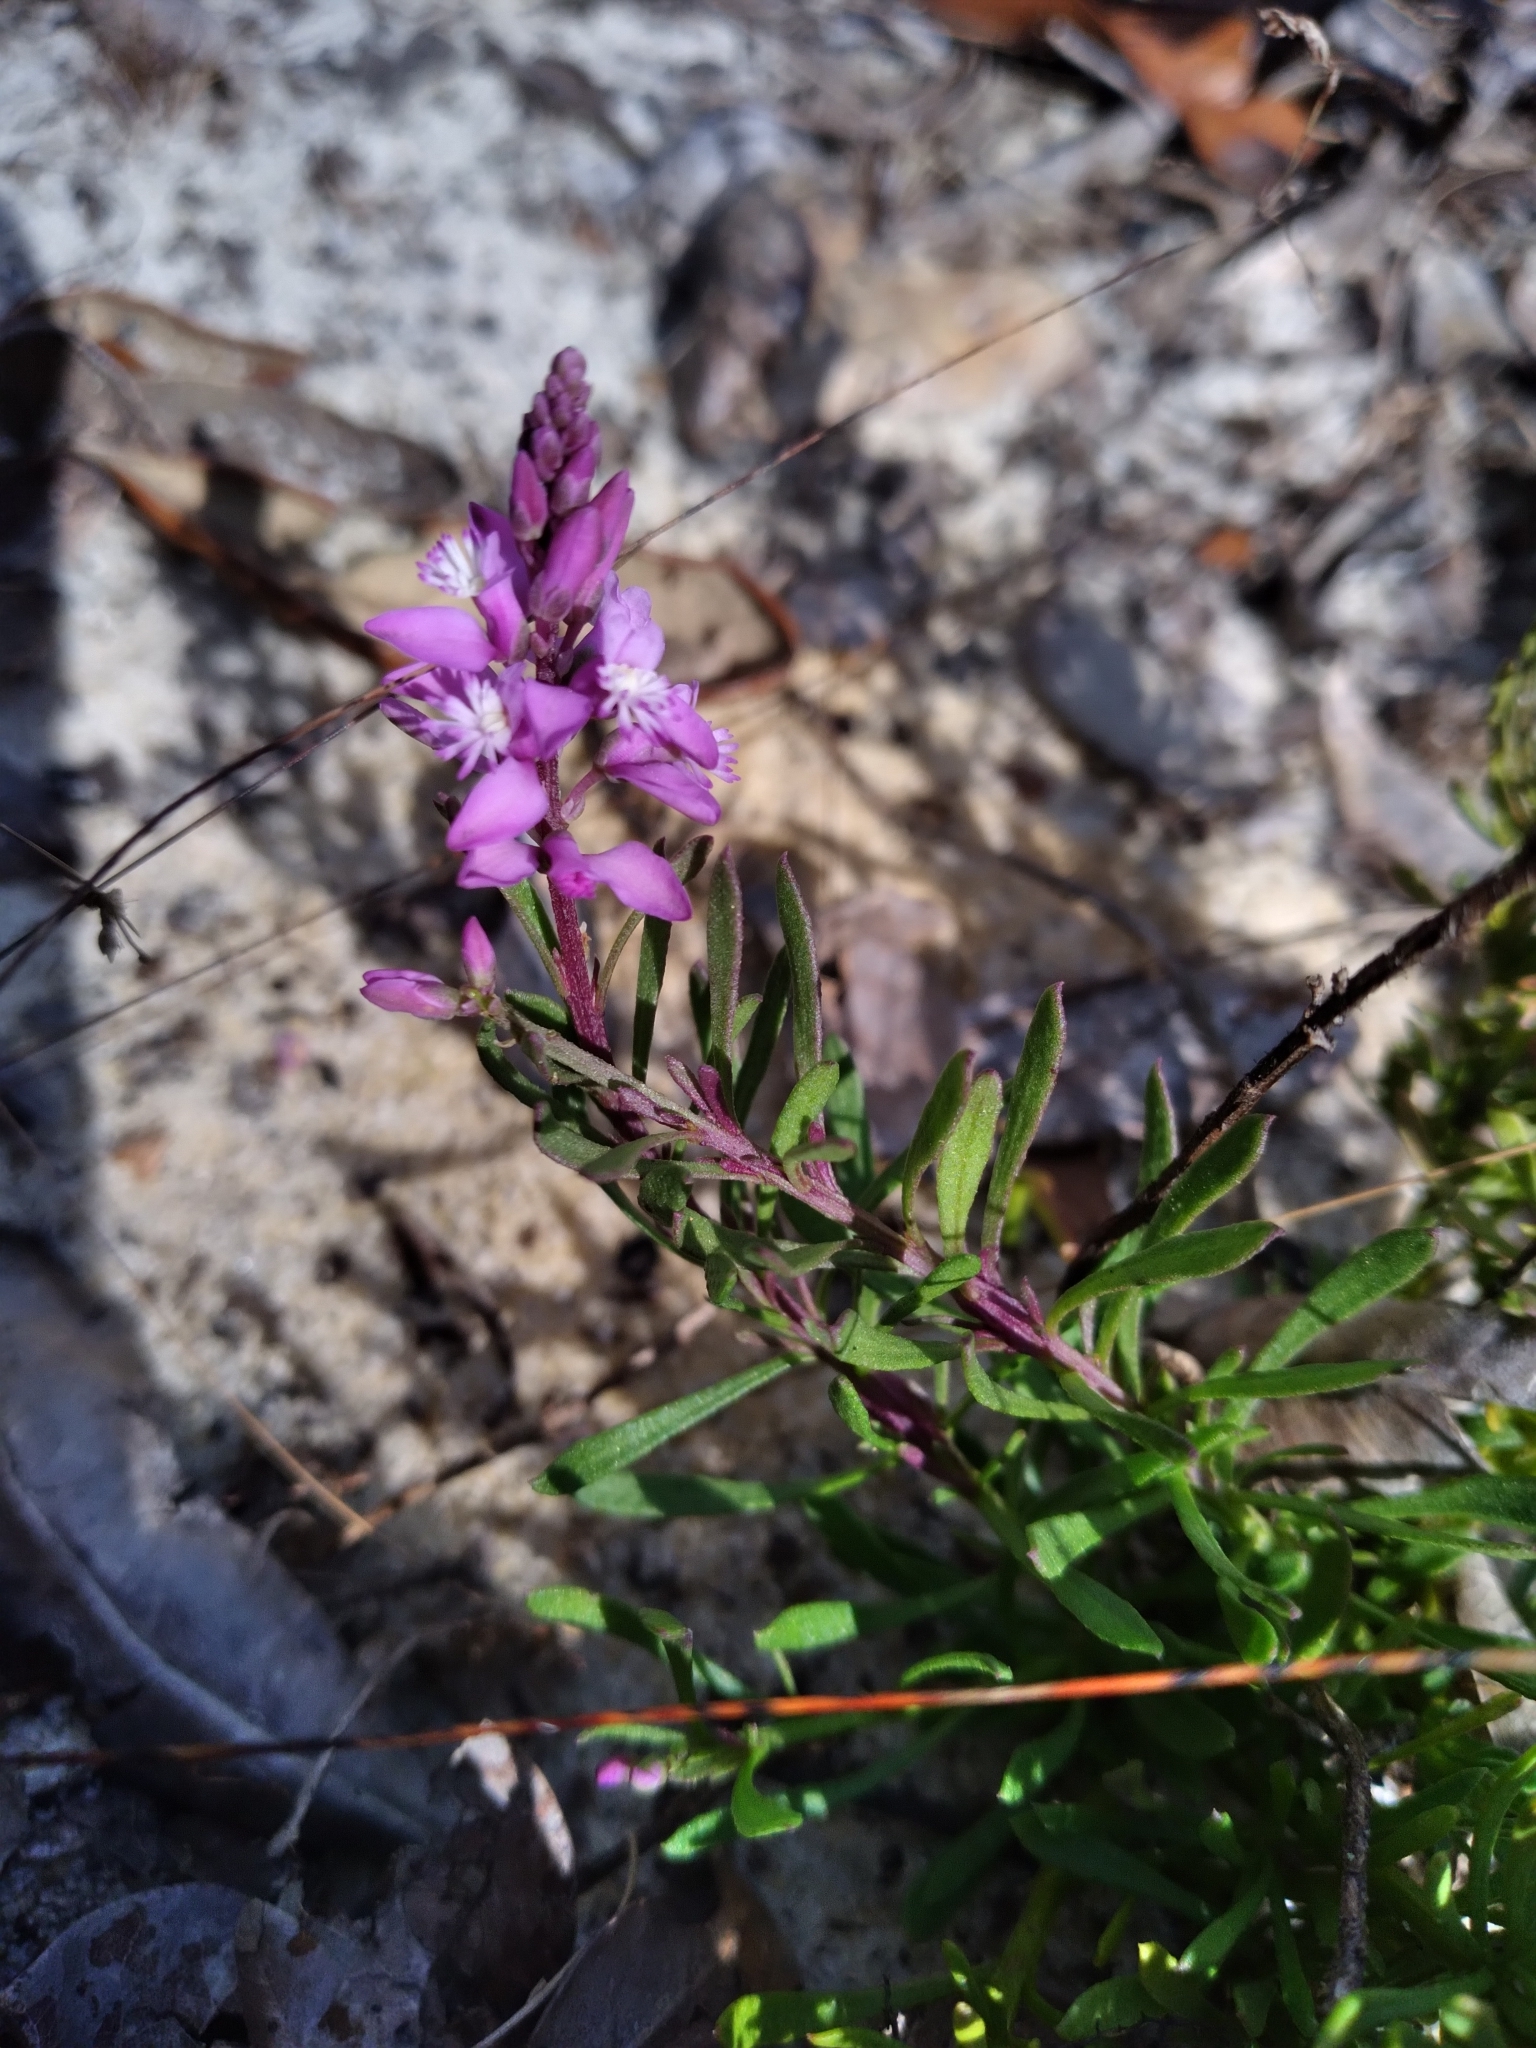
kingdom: Plantae
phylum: Tracheophyta
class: Magnoliopsida
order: Fabales
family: Polygalaceae
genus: Polygala
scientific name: Polygala lewtonii
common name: Lewton's polygala
